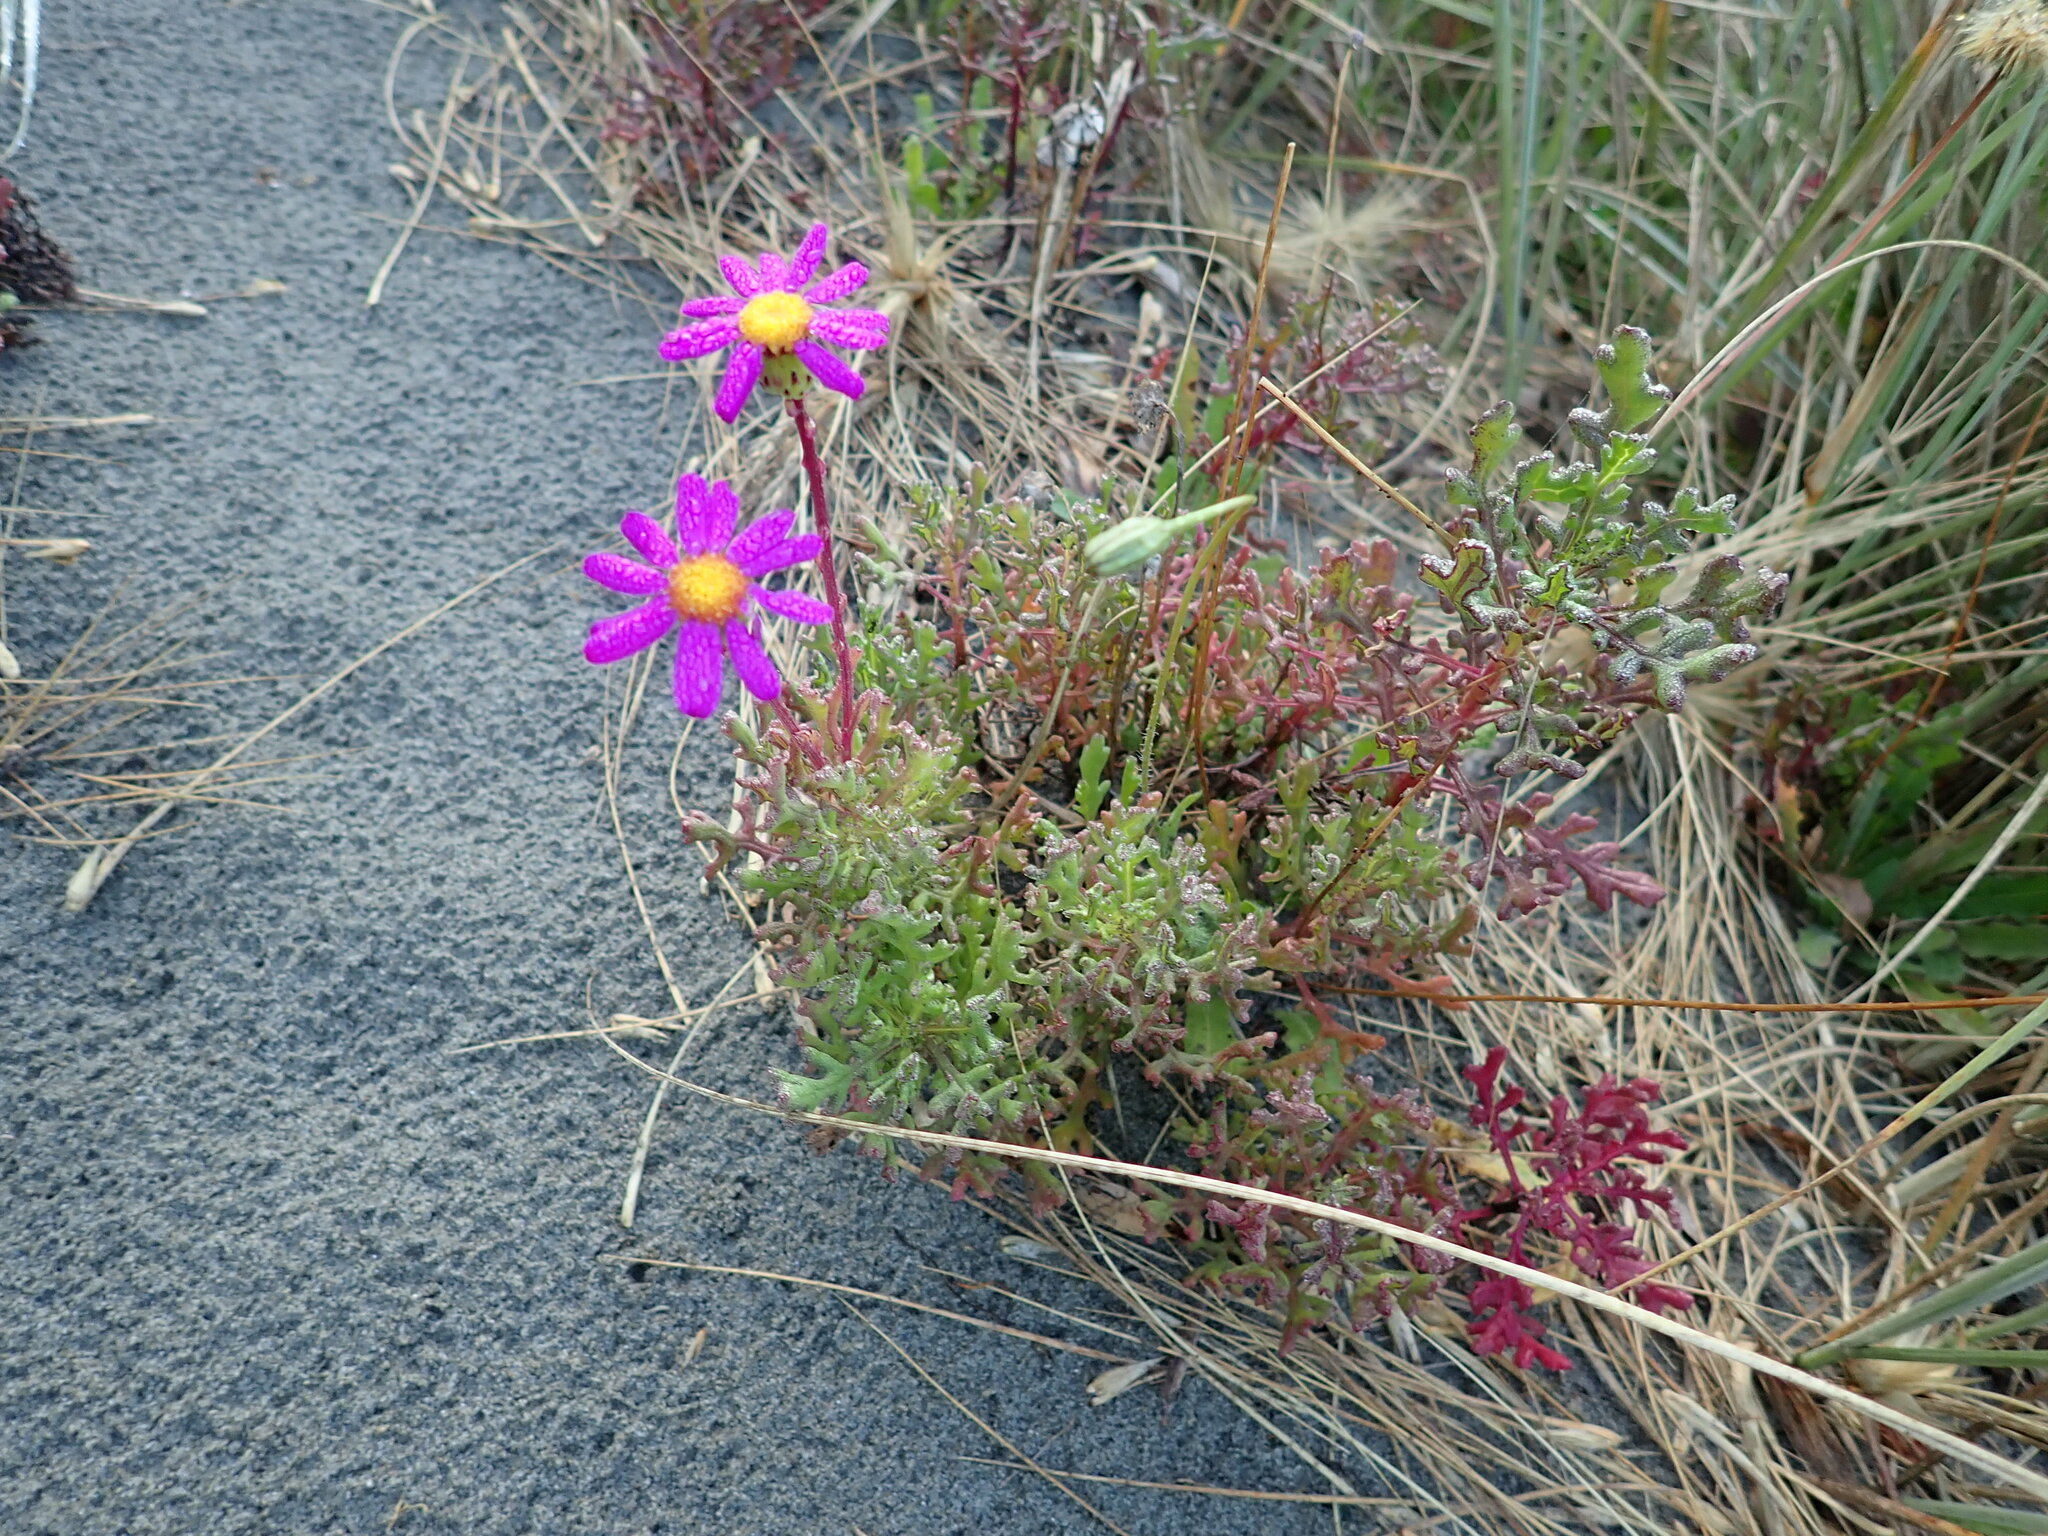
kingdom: Plantae
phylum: Tracheophyta
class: Magnoliopsida
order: Asterales
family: Asteraceae
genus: Senecio
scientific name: Senecio elegans
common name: Purple groundsel
